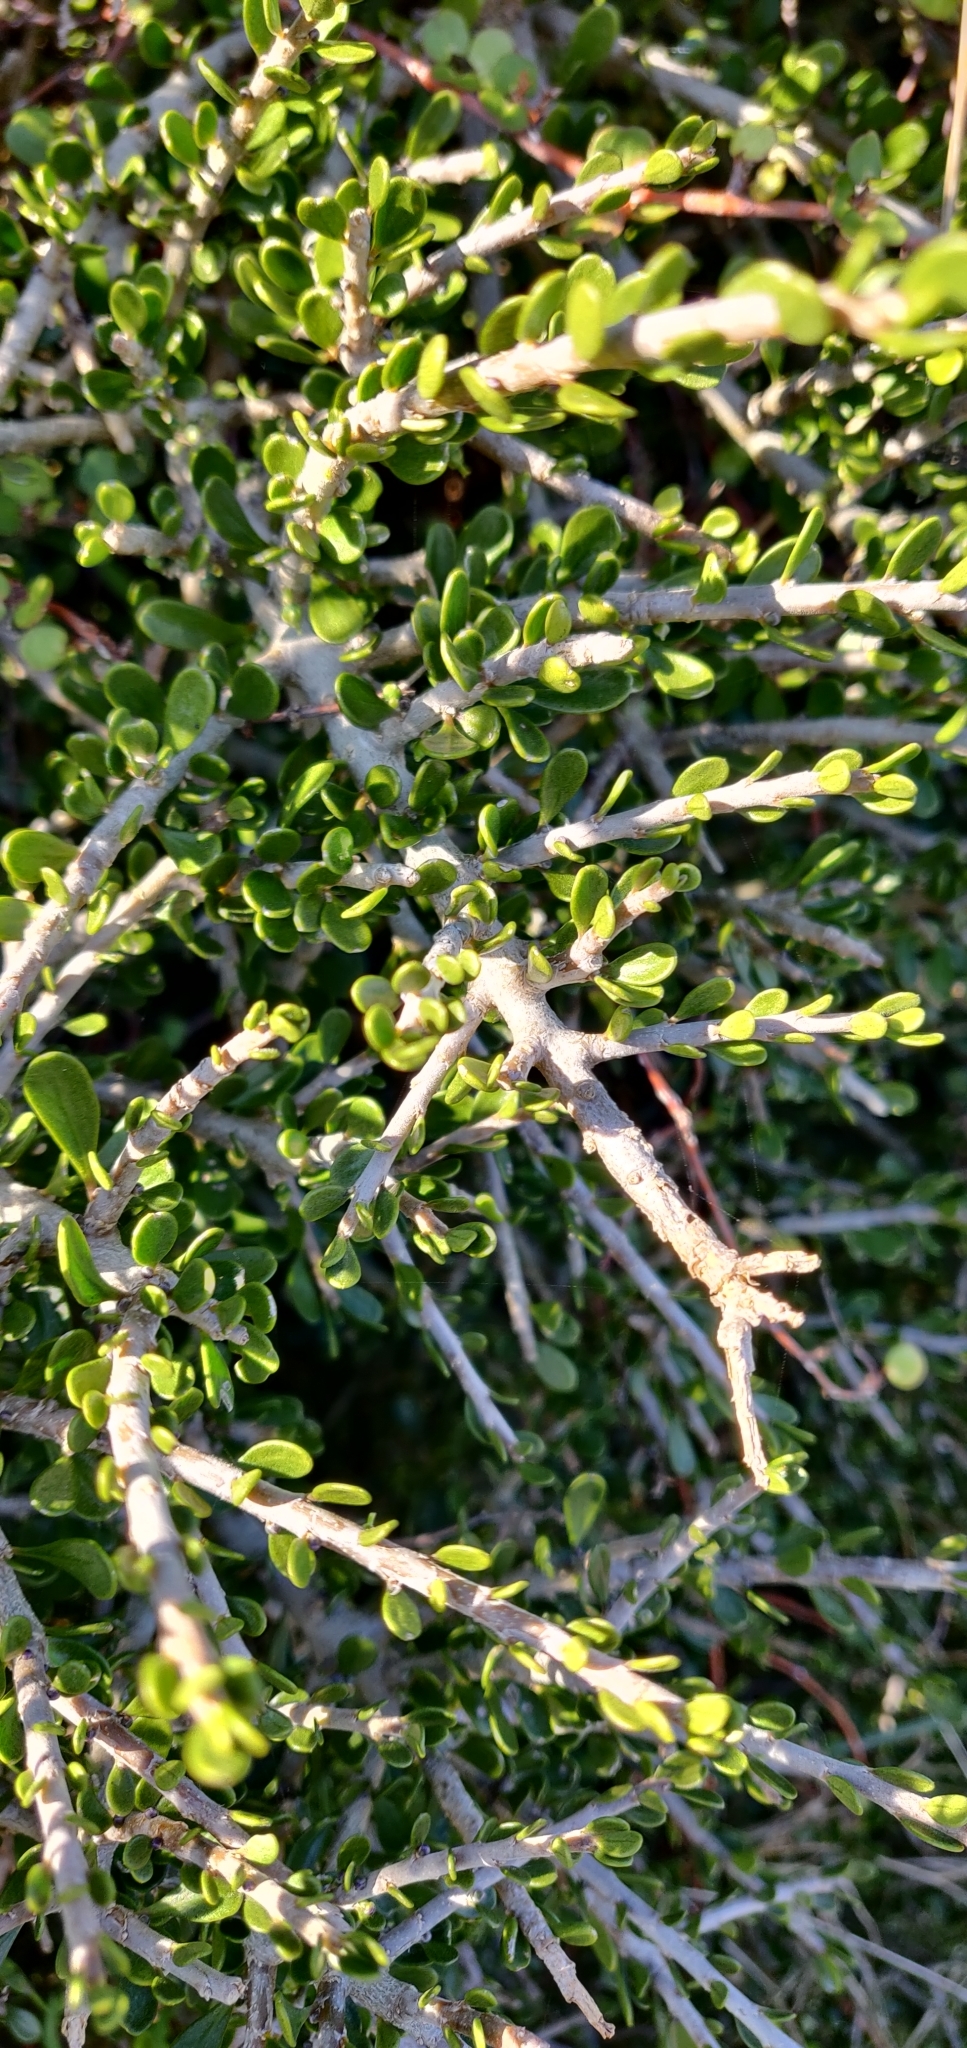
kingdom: Plantae
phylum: Tracheophyta
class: Magnoliopsida
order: Malpighiales
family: Violaceae
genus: Melicytus
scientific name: Melicytus crassifolius
